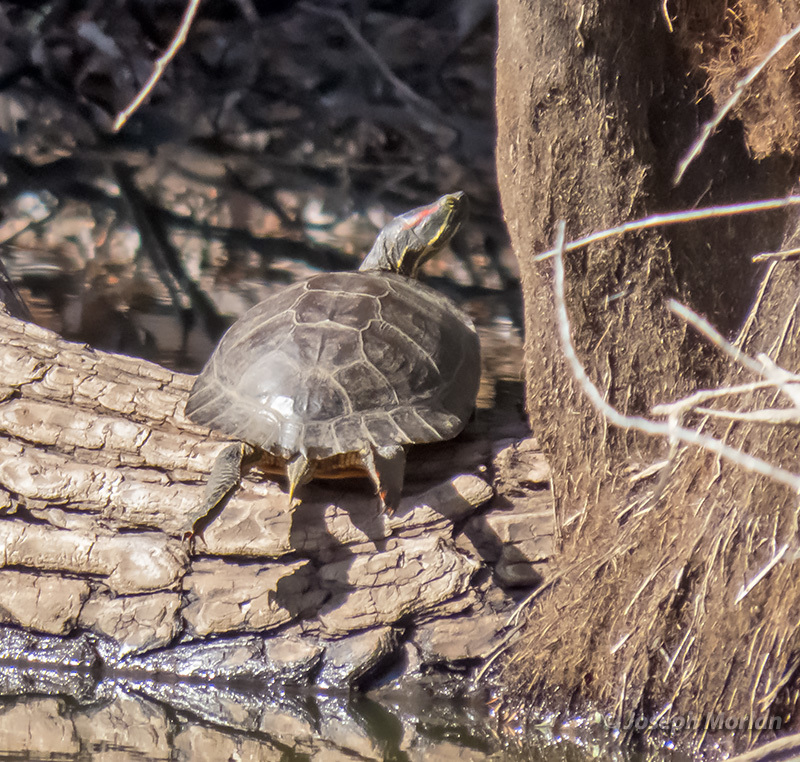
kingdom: Animalia
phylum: Chordata
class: Testudines
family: Emydidae
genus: Trachemys
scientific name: Trachemys scripta
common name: Slider
